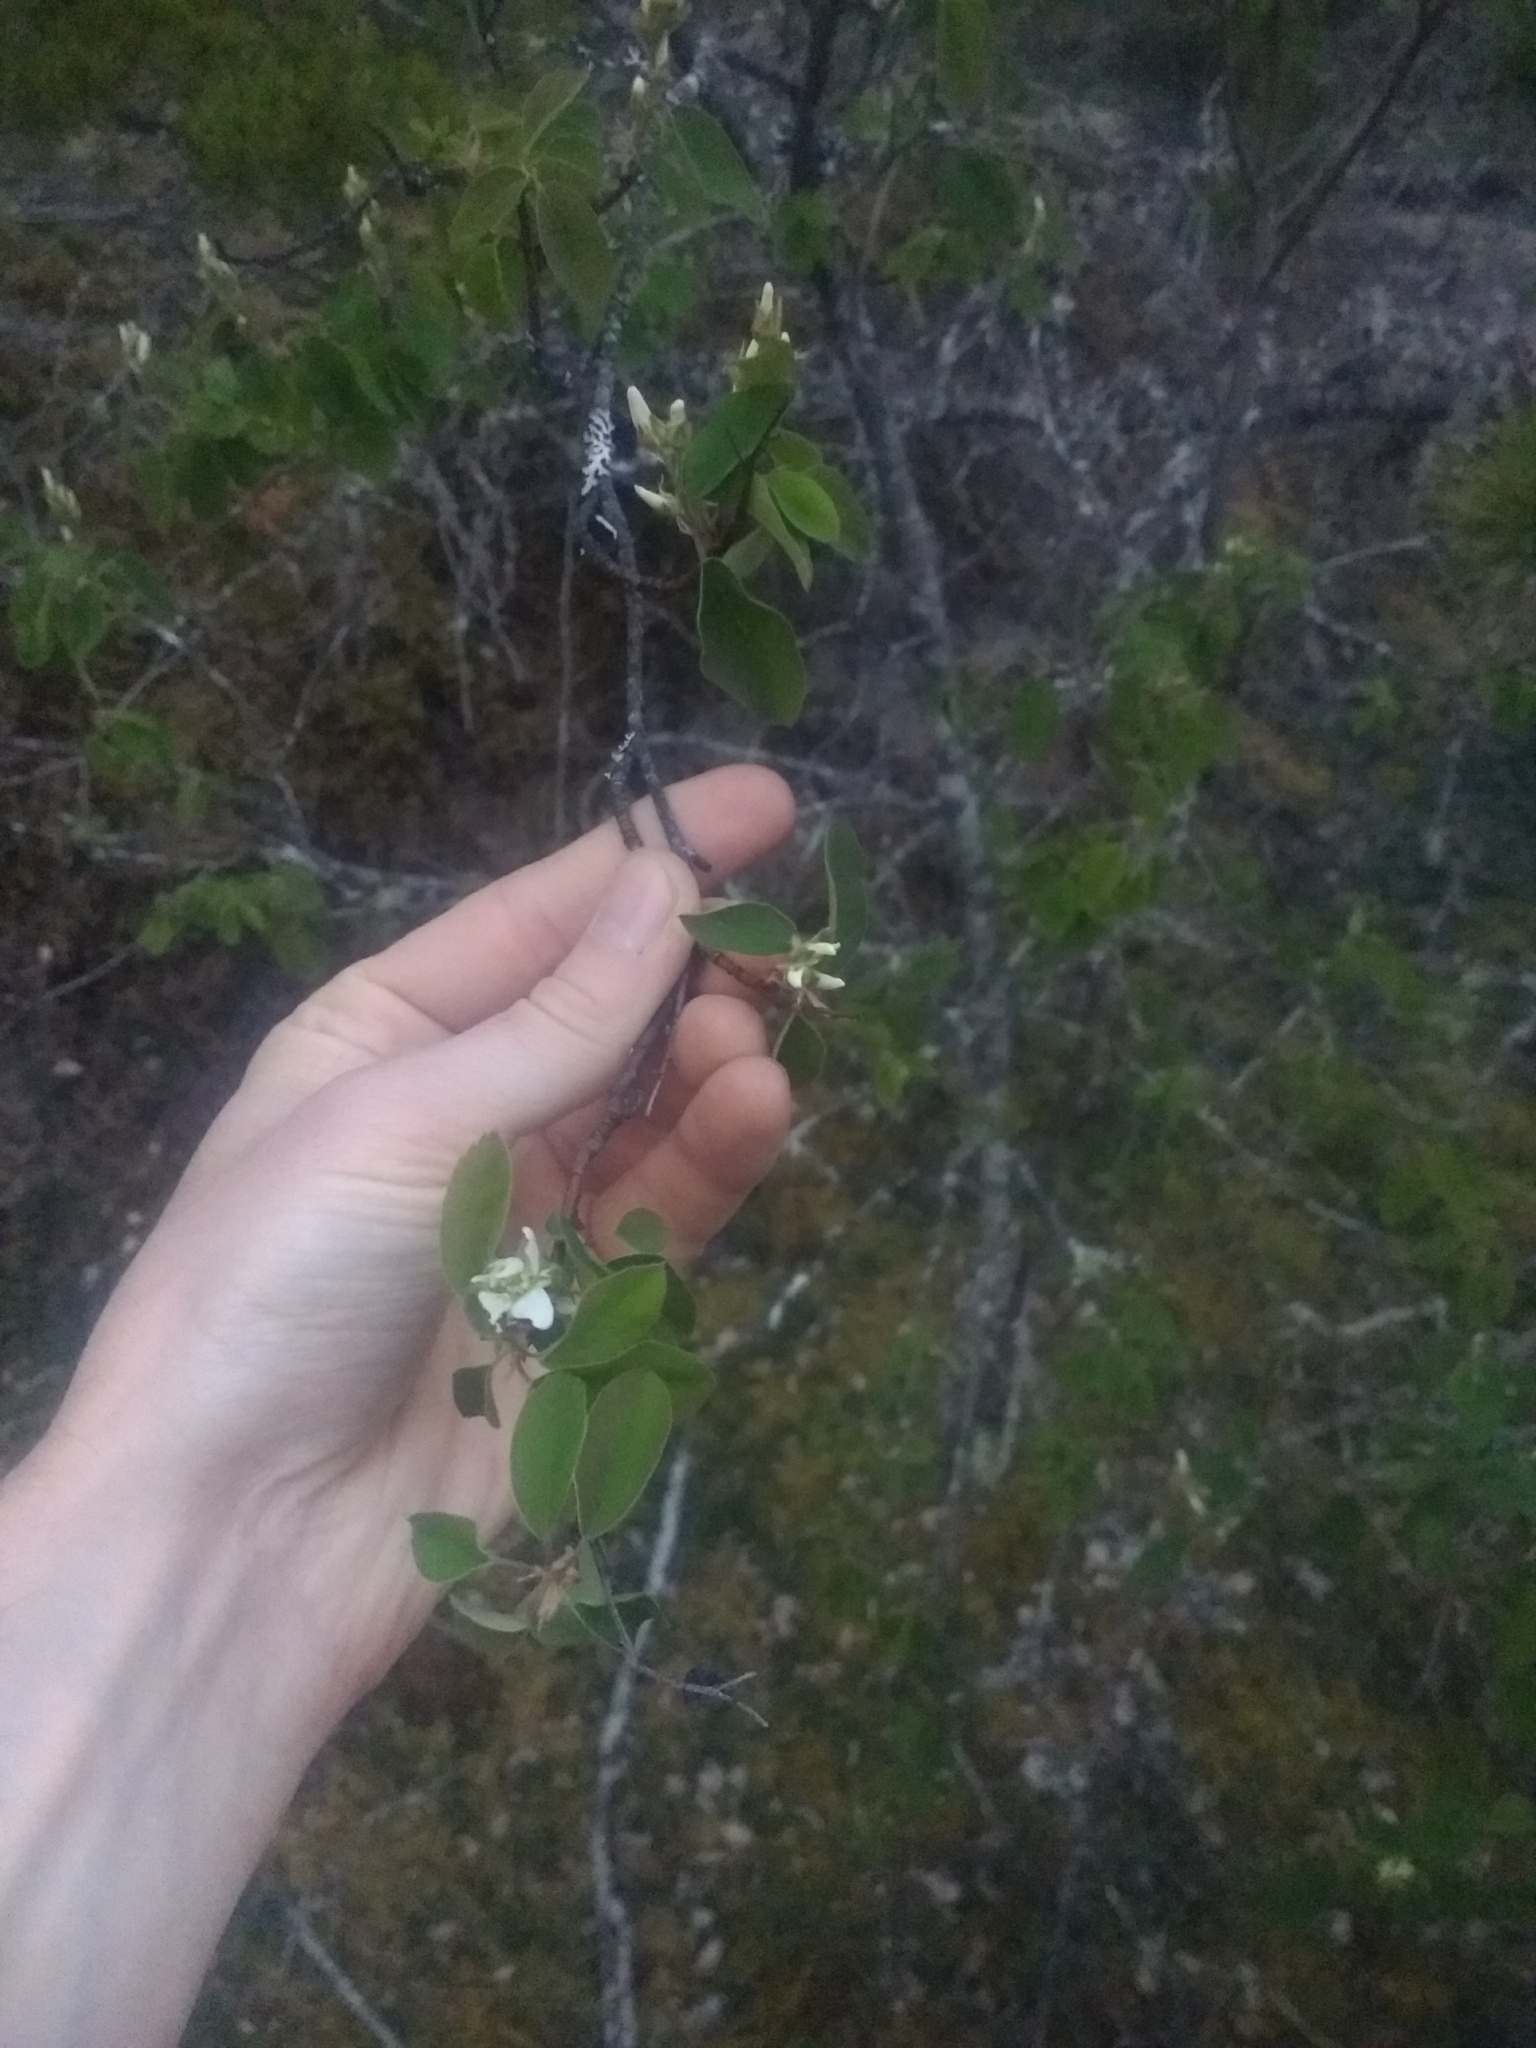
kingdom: Plantae
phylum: Tracheophyta
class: Magnoliopsida
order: Rosales
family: Rosaceae
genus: Amelanchier
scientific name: Amelanchier alnifolia
